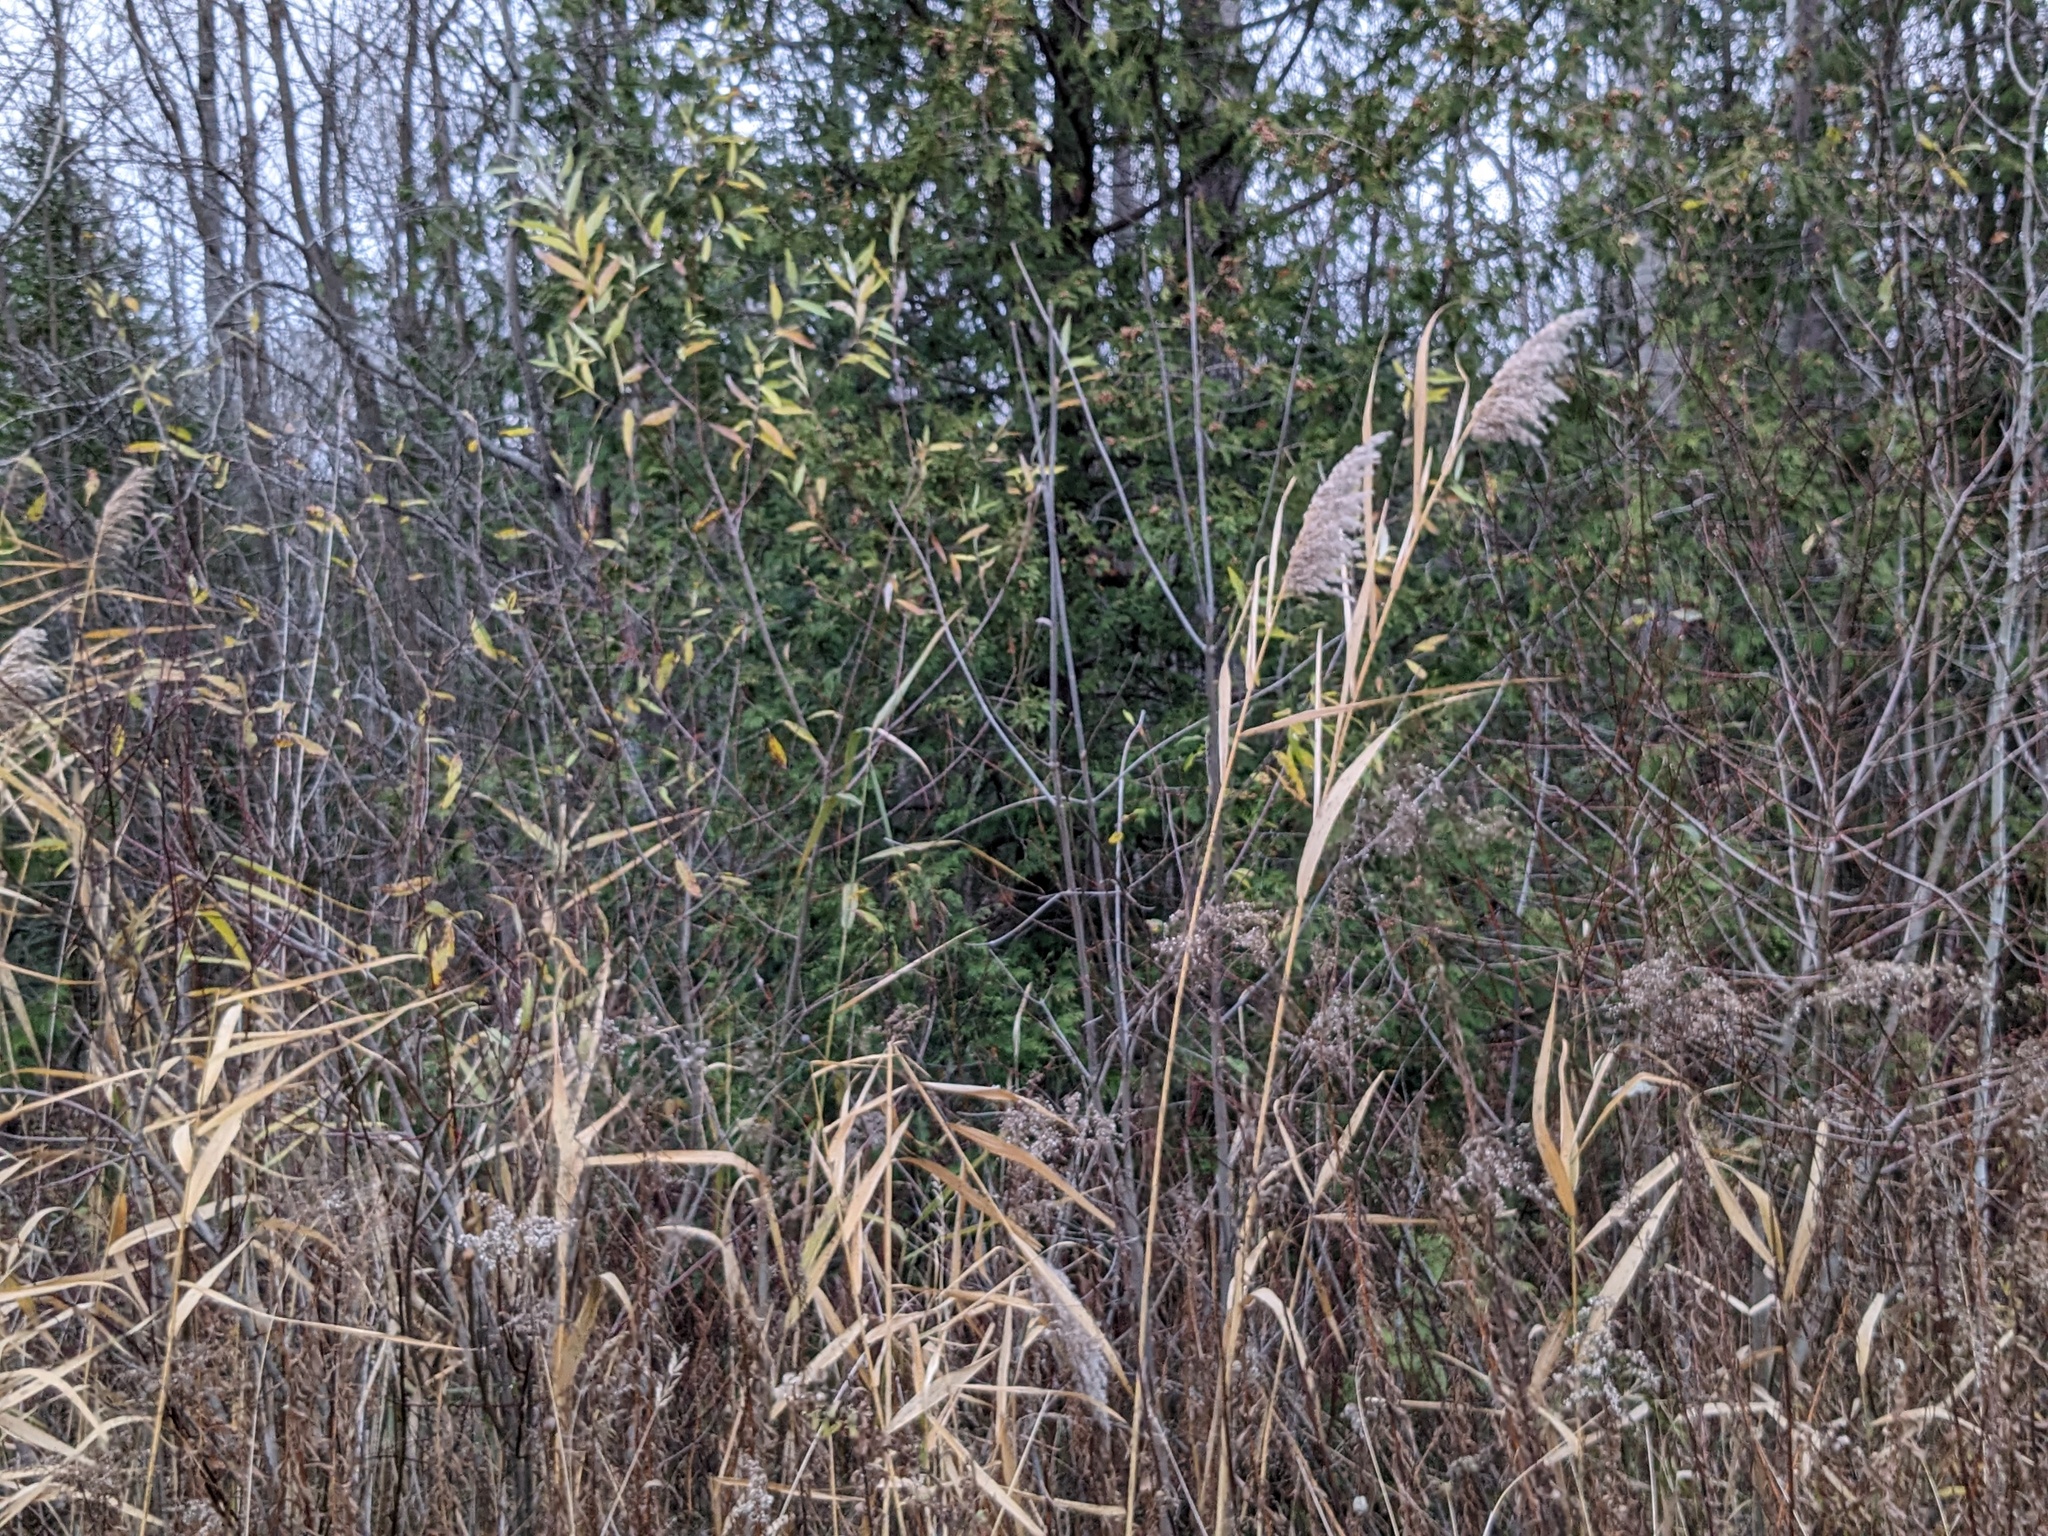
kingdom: Plantae
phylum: Tracheophyta
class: Liliopsida
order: Poales
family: Poaceae
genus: Phragmites
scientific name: Phragmites australis
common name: Common reed
